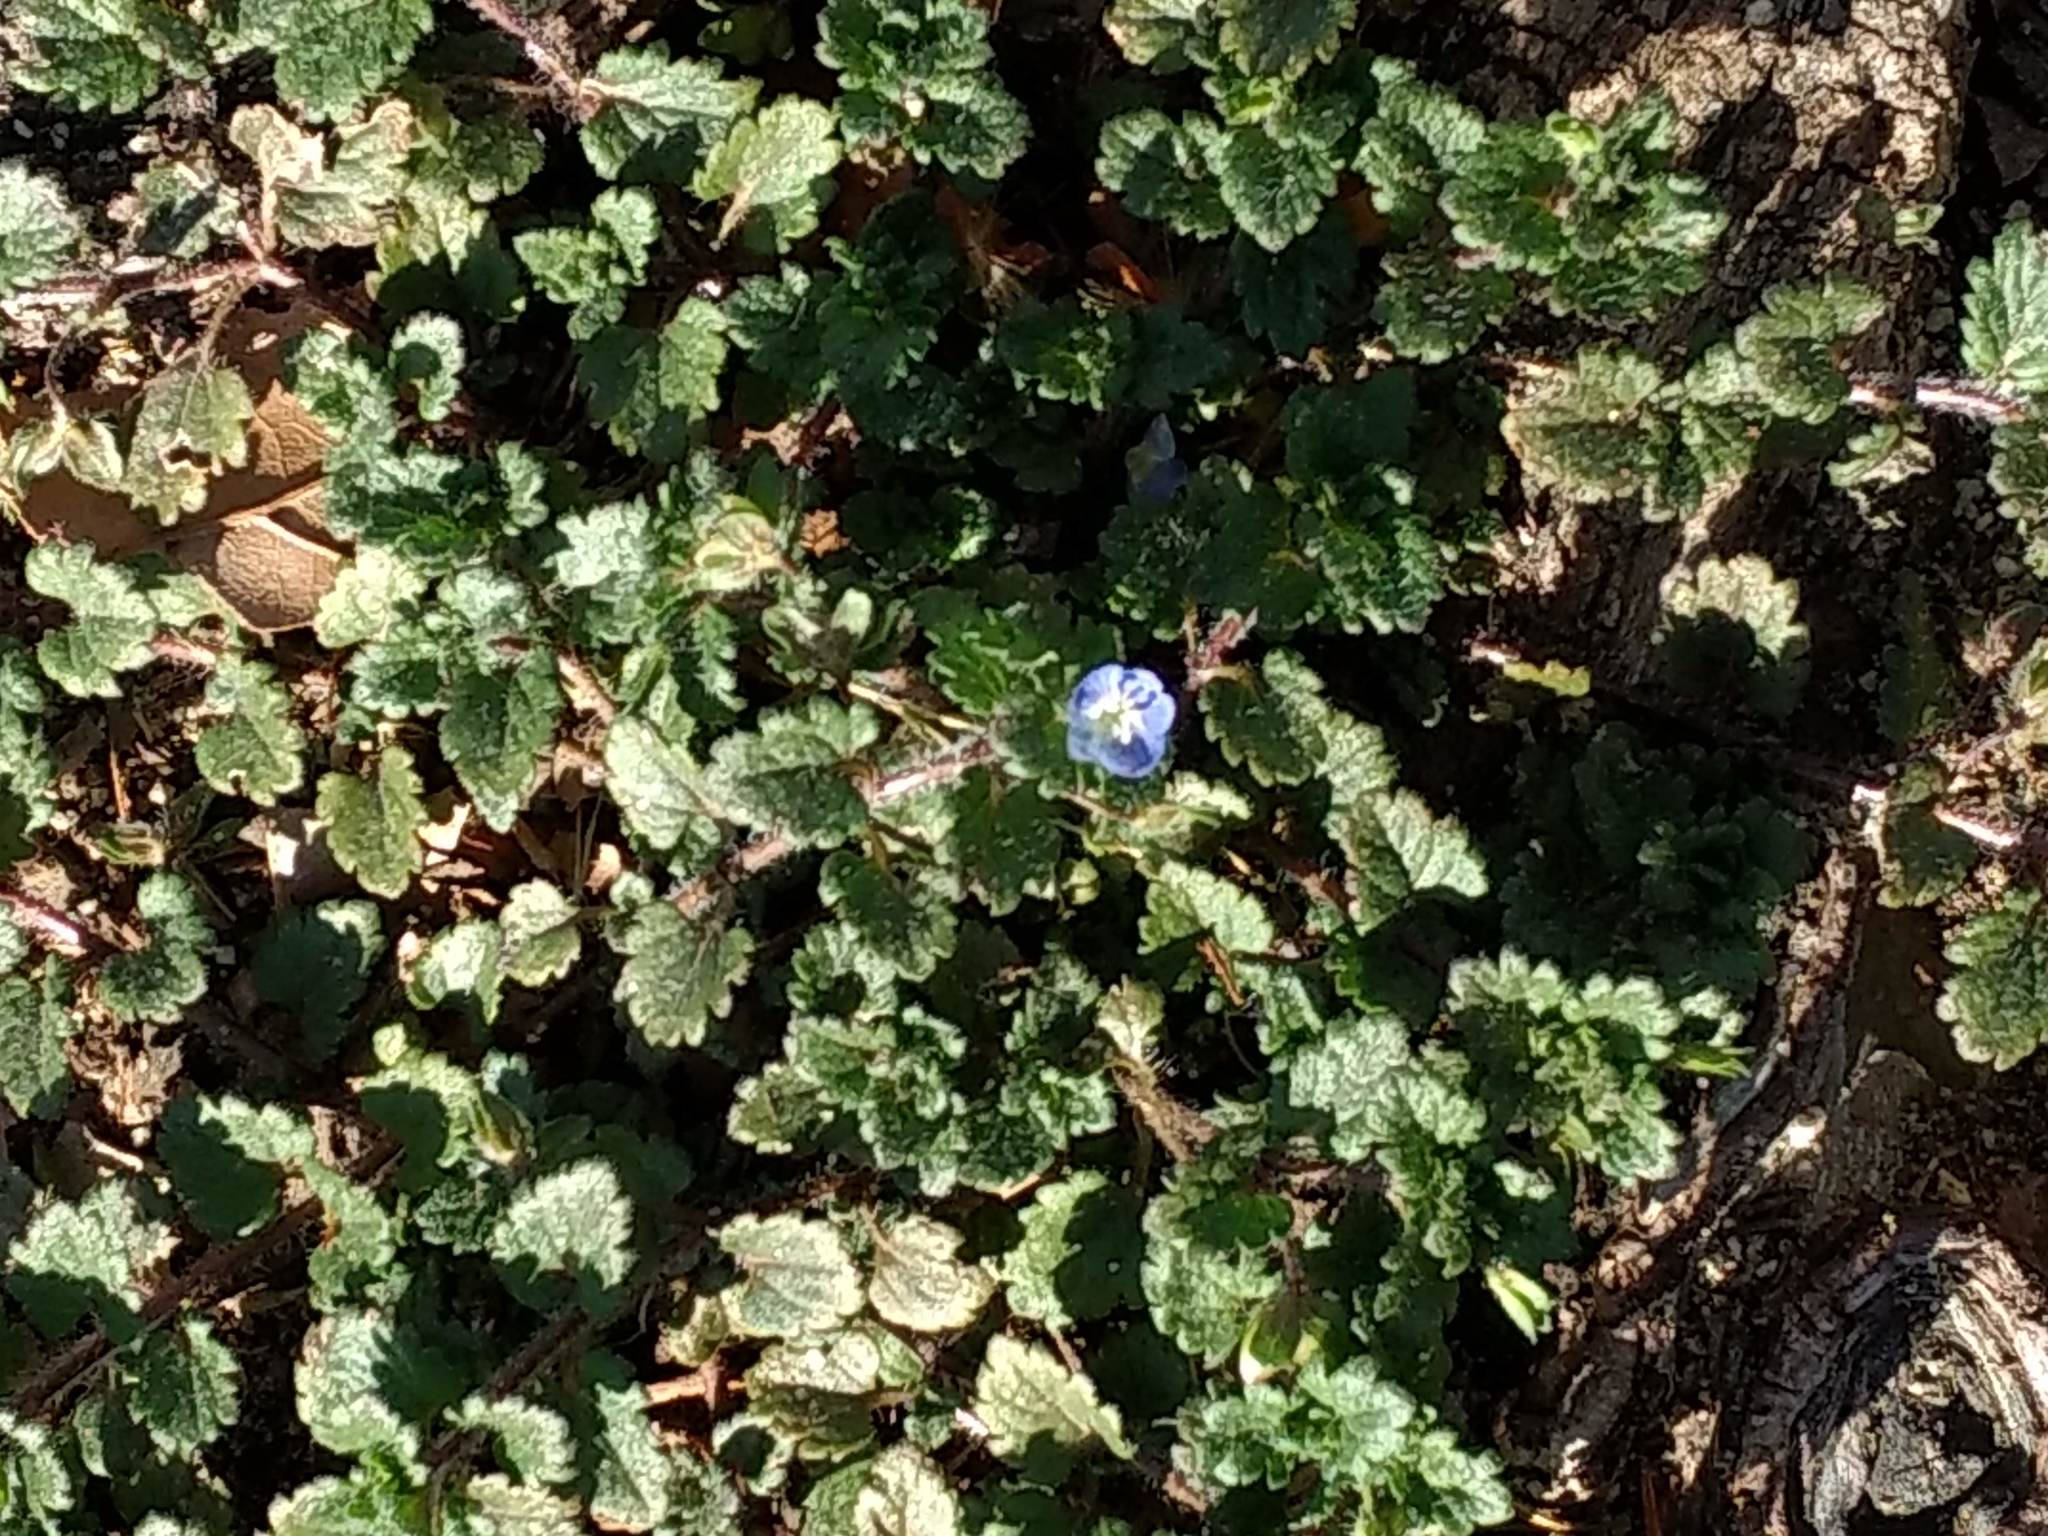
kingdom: Plantae
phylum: Tracheophyta
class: Magnoliopsida
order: Lamiales
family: Plantaginaceae
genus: Veronica
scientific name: Veronica persica
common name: Common field-speedwell
